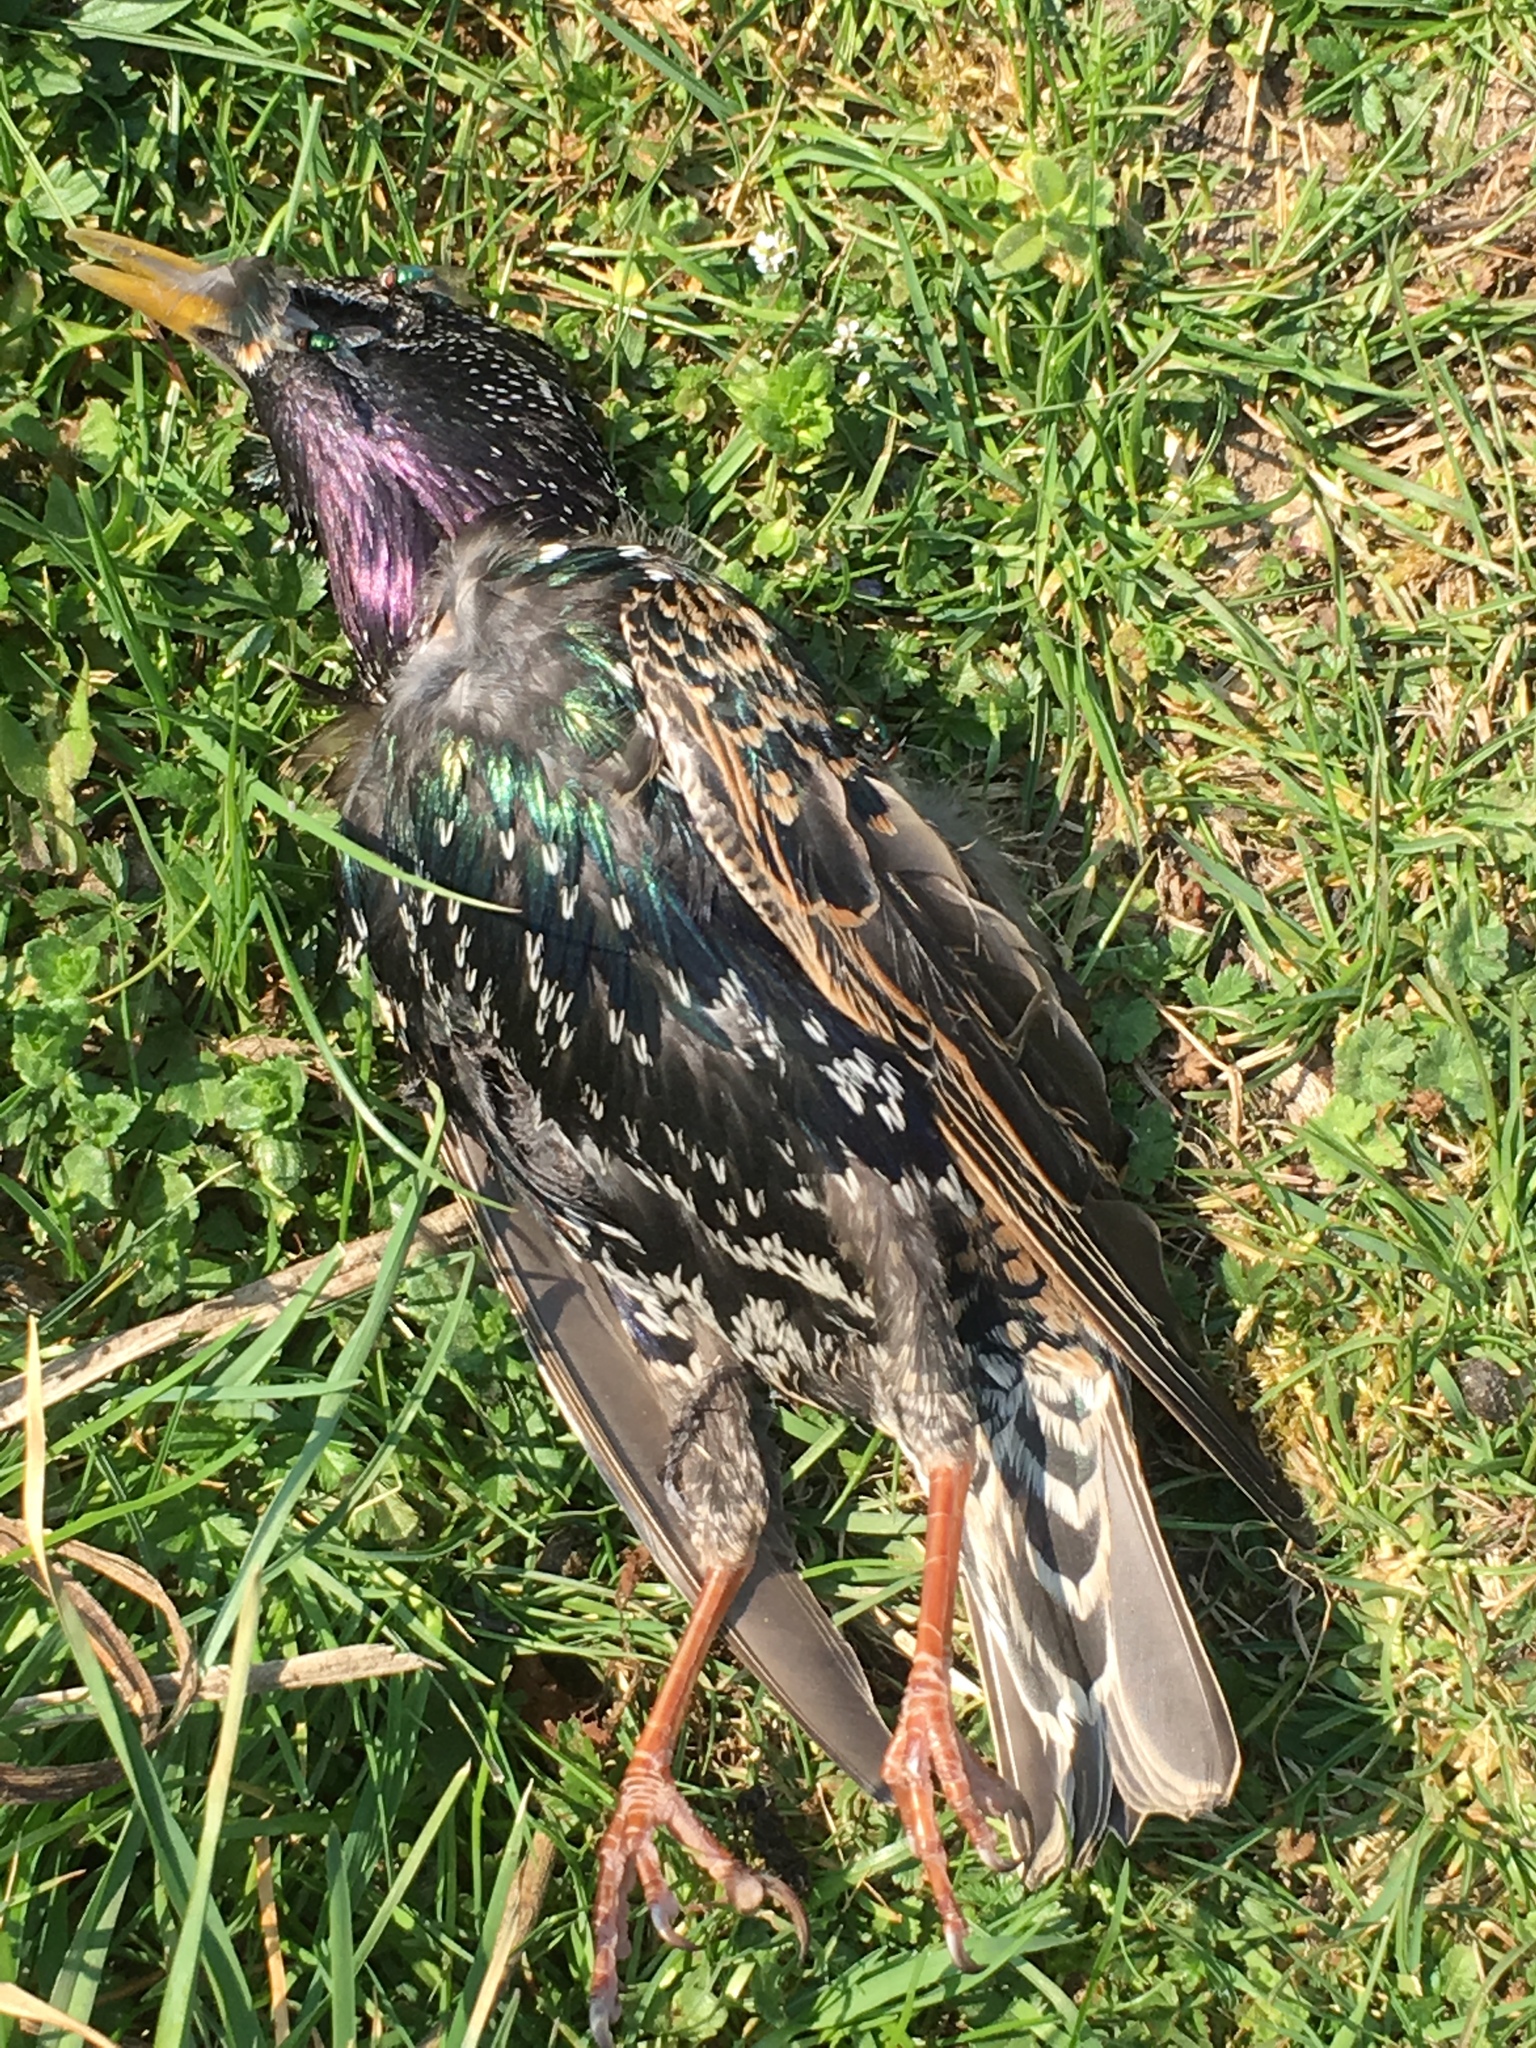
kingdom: Animalia
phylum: Chordata
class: Aves
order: Passeriformes
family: Sturnidae
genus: Sturnus
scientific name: Sturnus vulgaris
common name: Common starling
